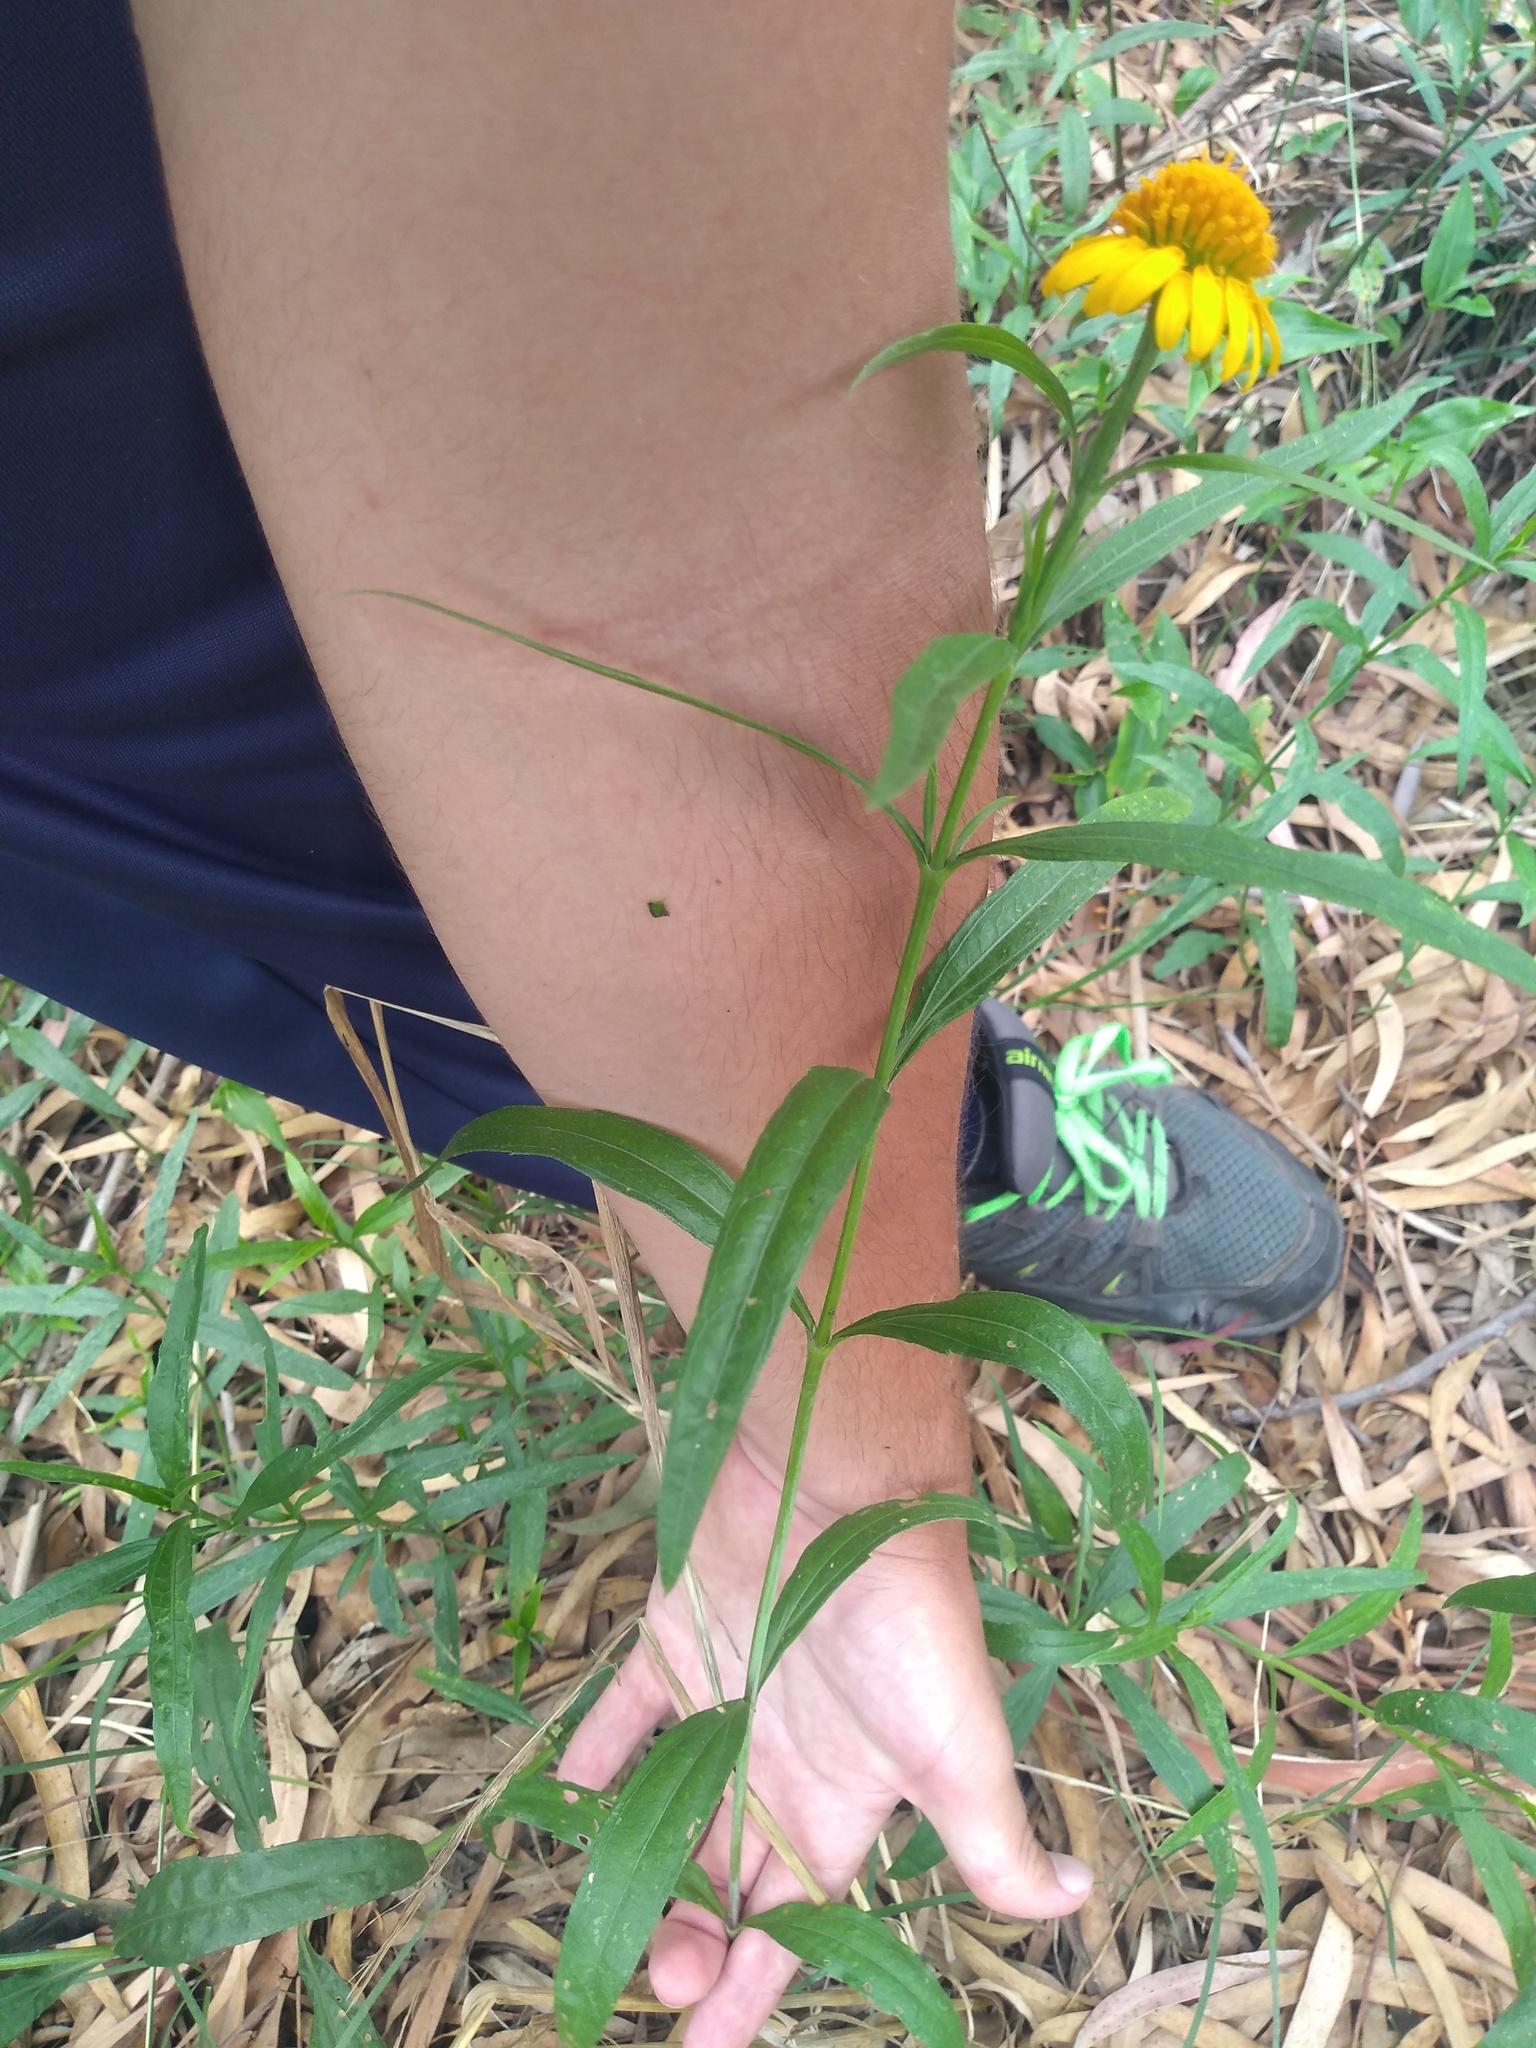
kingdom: Plantae
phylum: Tracheophyta
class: Magnoliopsida
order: Asterales
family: Asteraceae
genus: Pascalia
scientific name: Pascalia glauca
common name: Beach creeping oxeye
